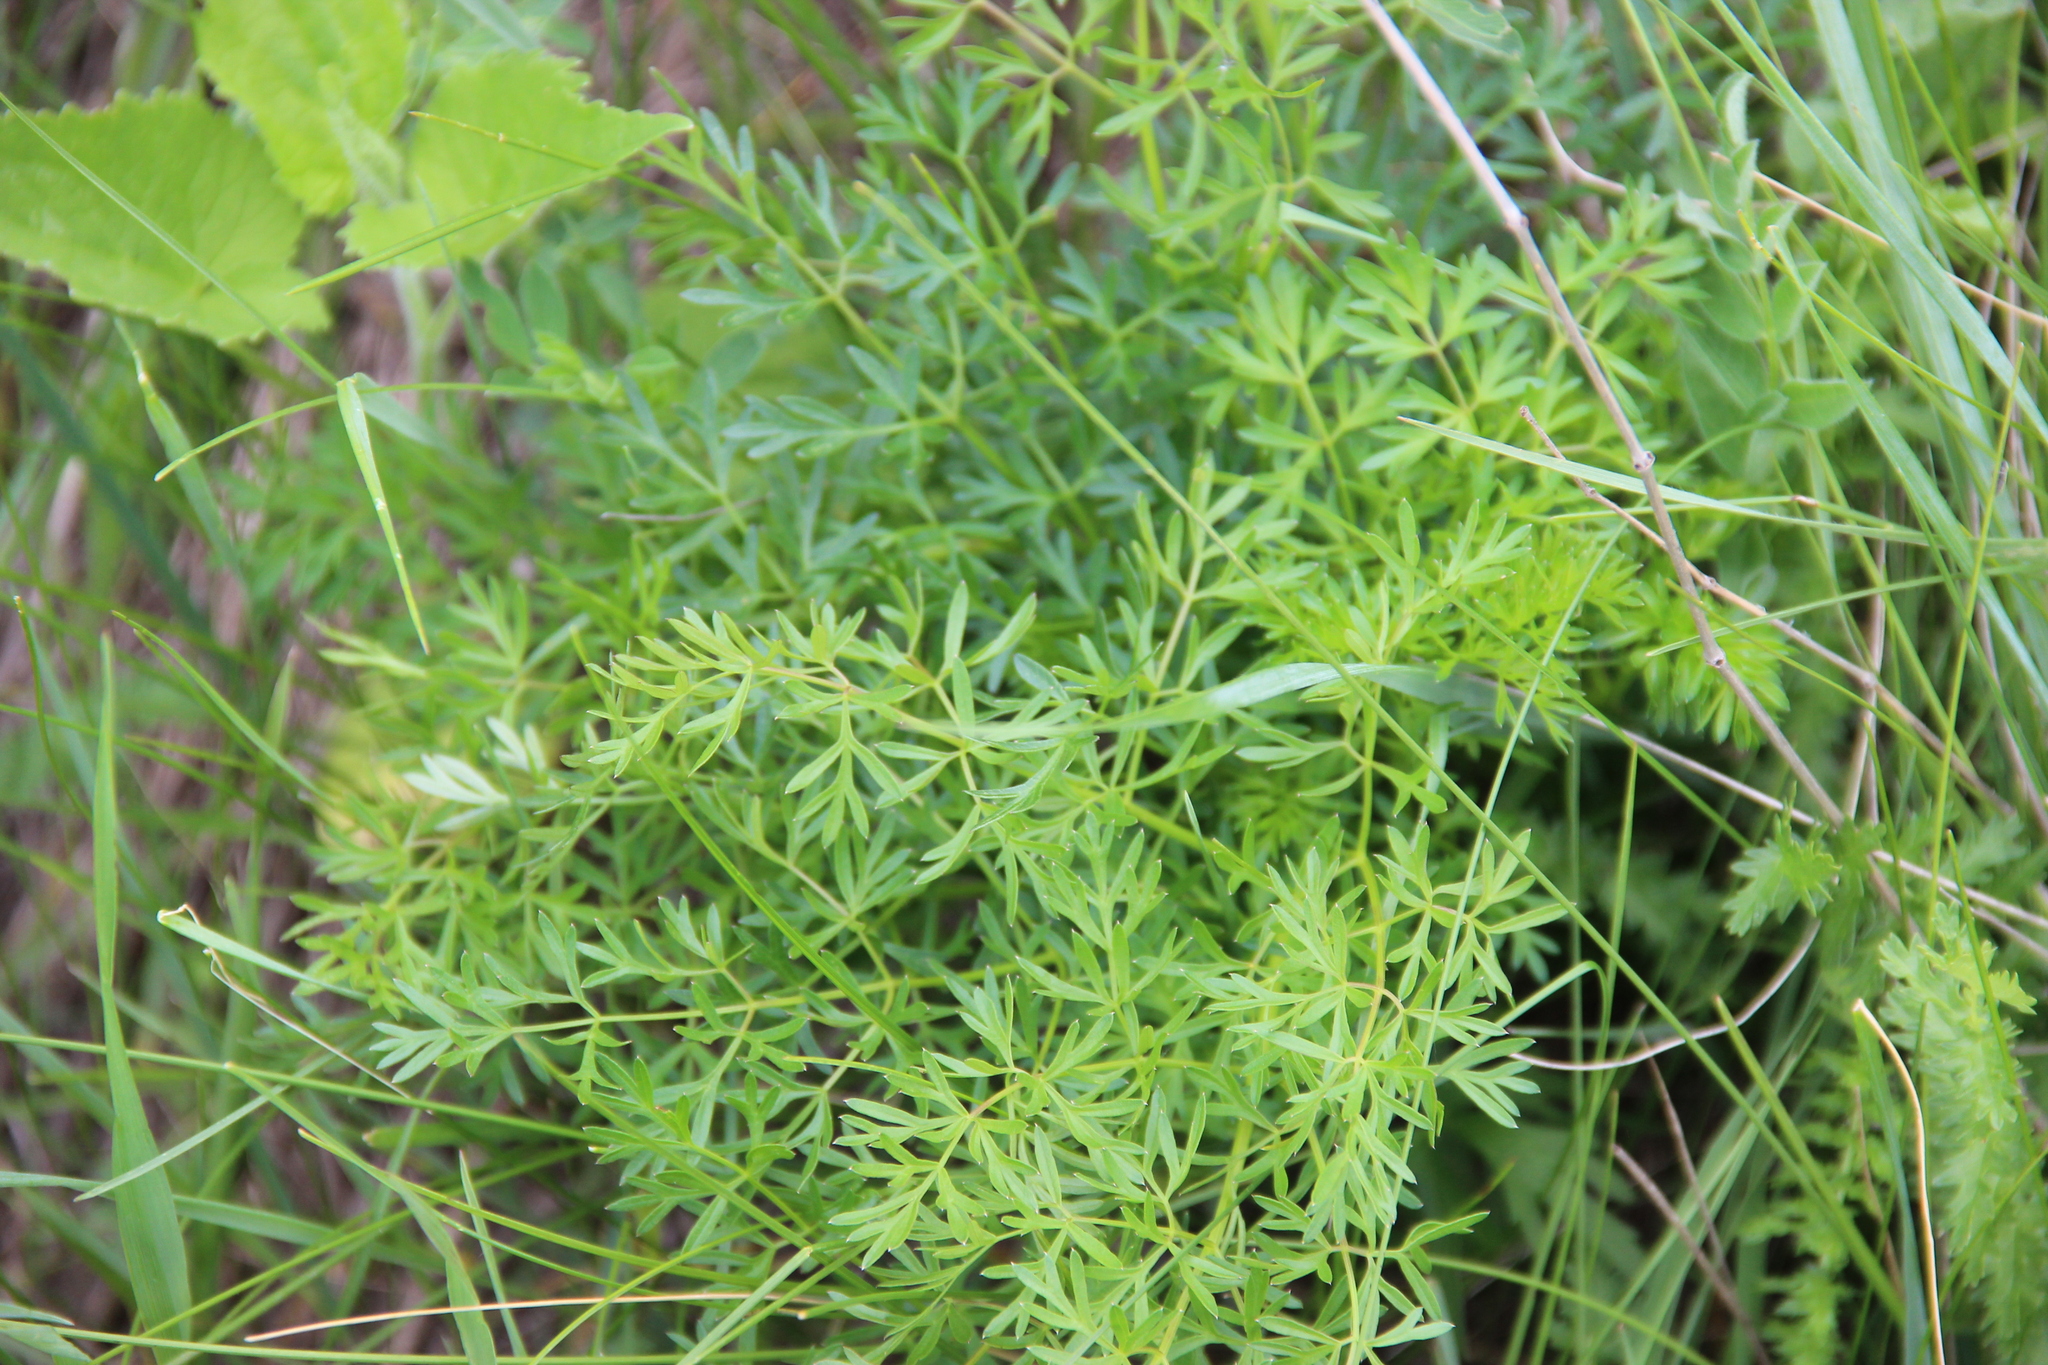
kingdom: Plantae
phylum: Tracheophyta
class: Magnoliopsida
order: Apiales
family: Apiaceae
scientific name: Apiaceae
